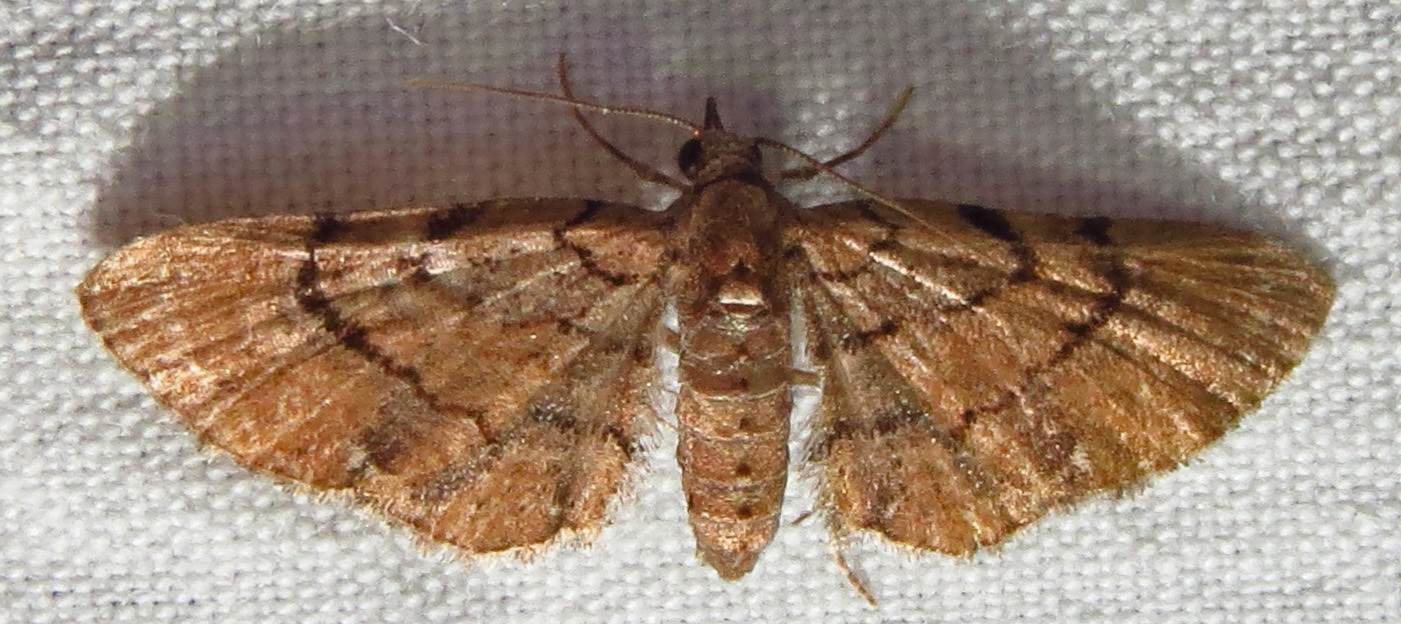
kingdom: Animalia
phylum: Arthropoda
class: Insecta
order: Lepidoptera
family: Geometridae
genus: Eupithecia
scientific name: Eupithecia peckorum
